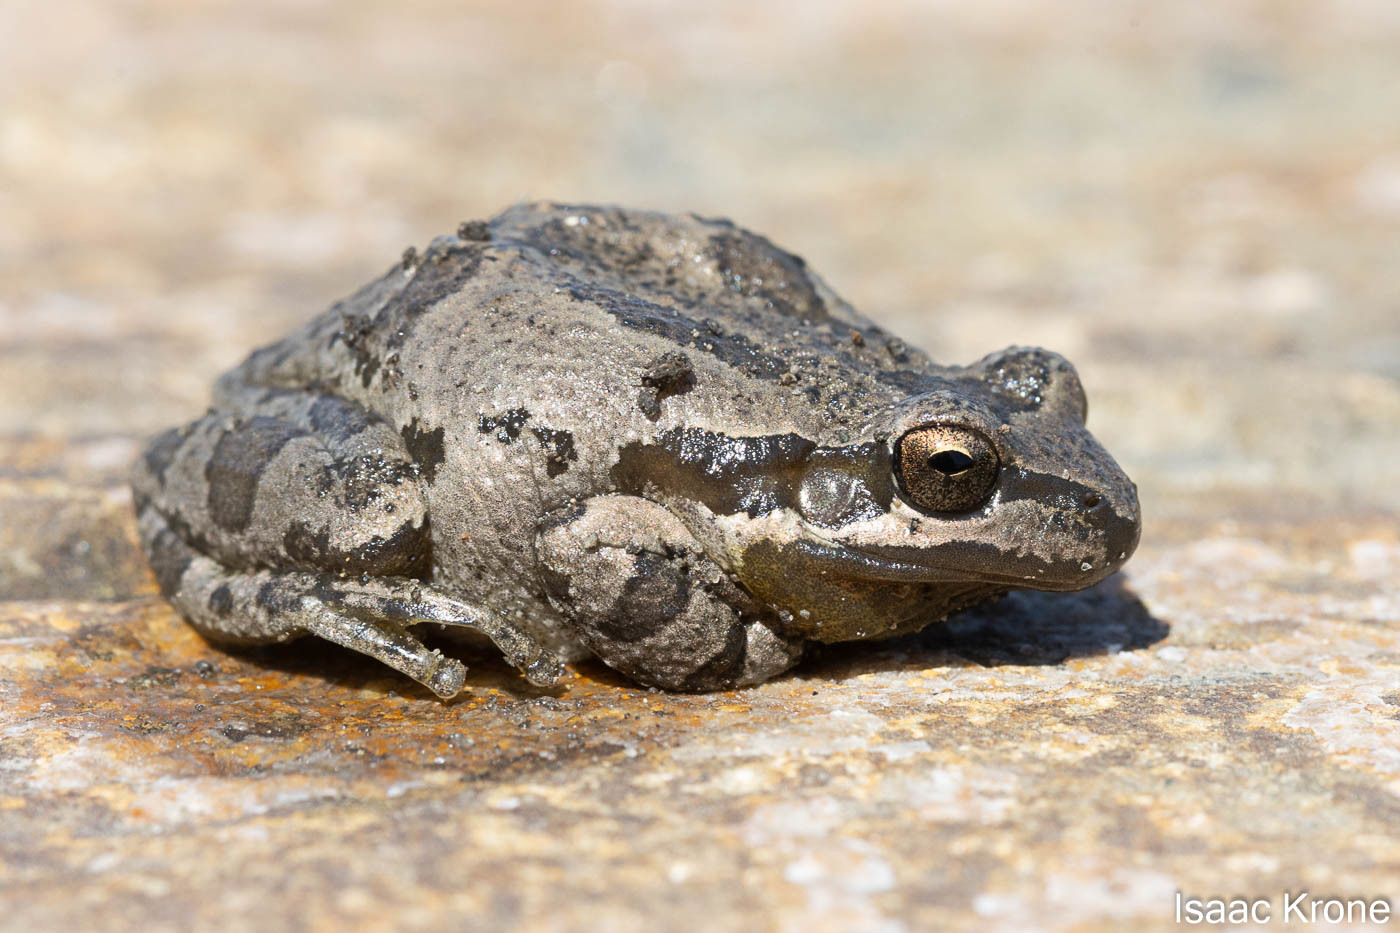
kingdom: Animalia
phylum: Chordata
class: Amphibia
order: Anura
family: Hylidae
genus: Pseudacris
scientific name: Pseudacris regilla
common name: Pacific chorus frog
